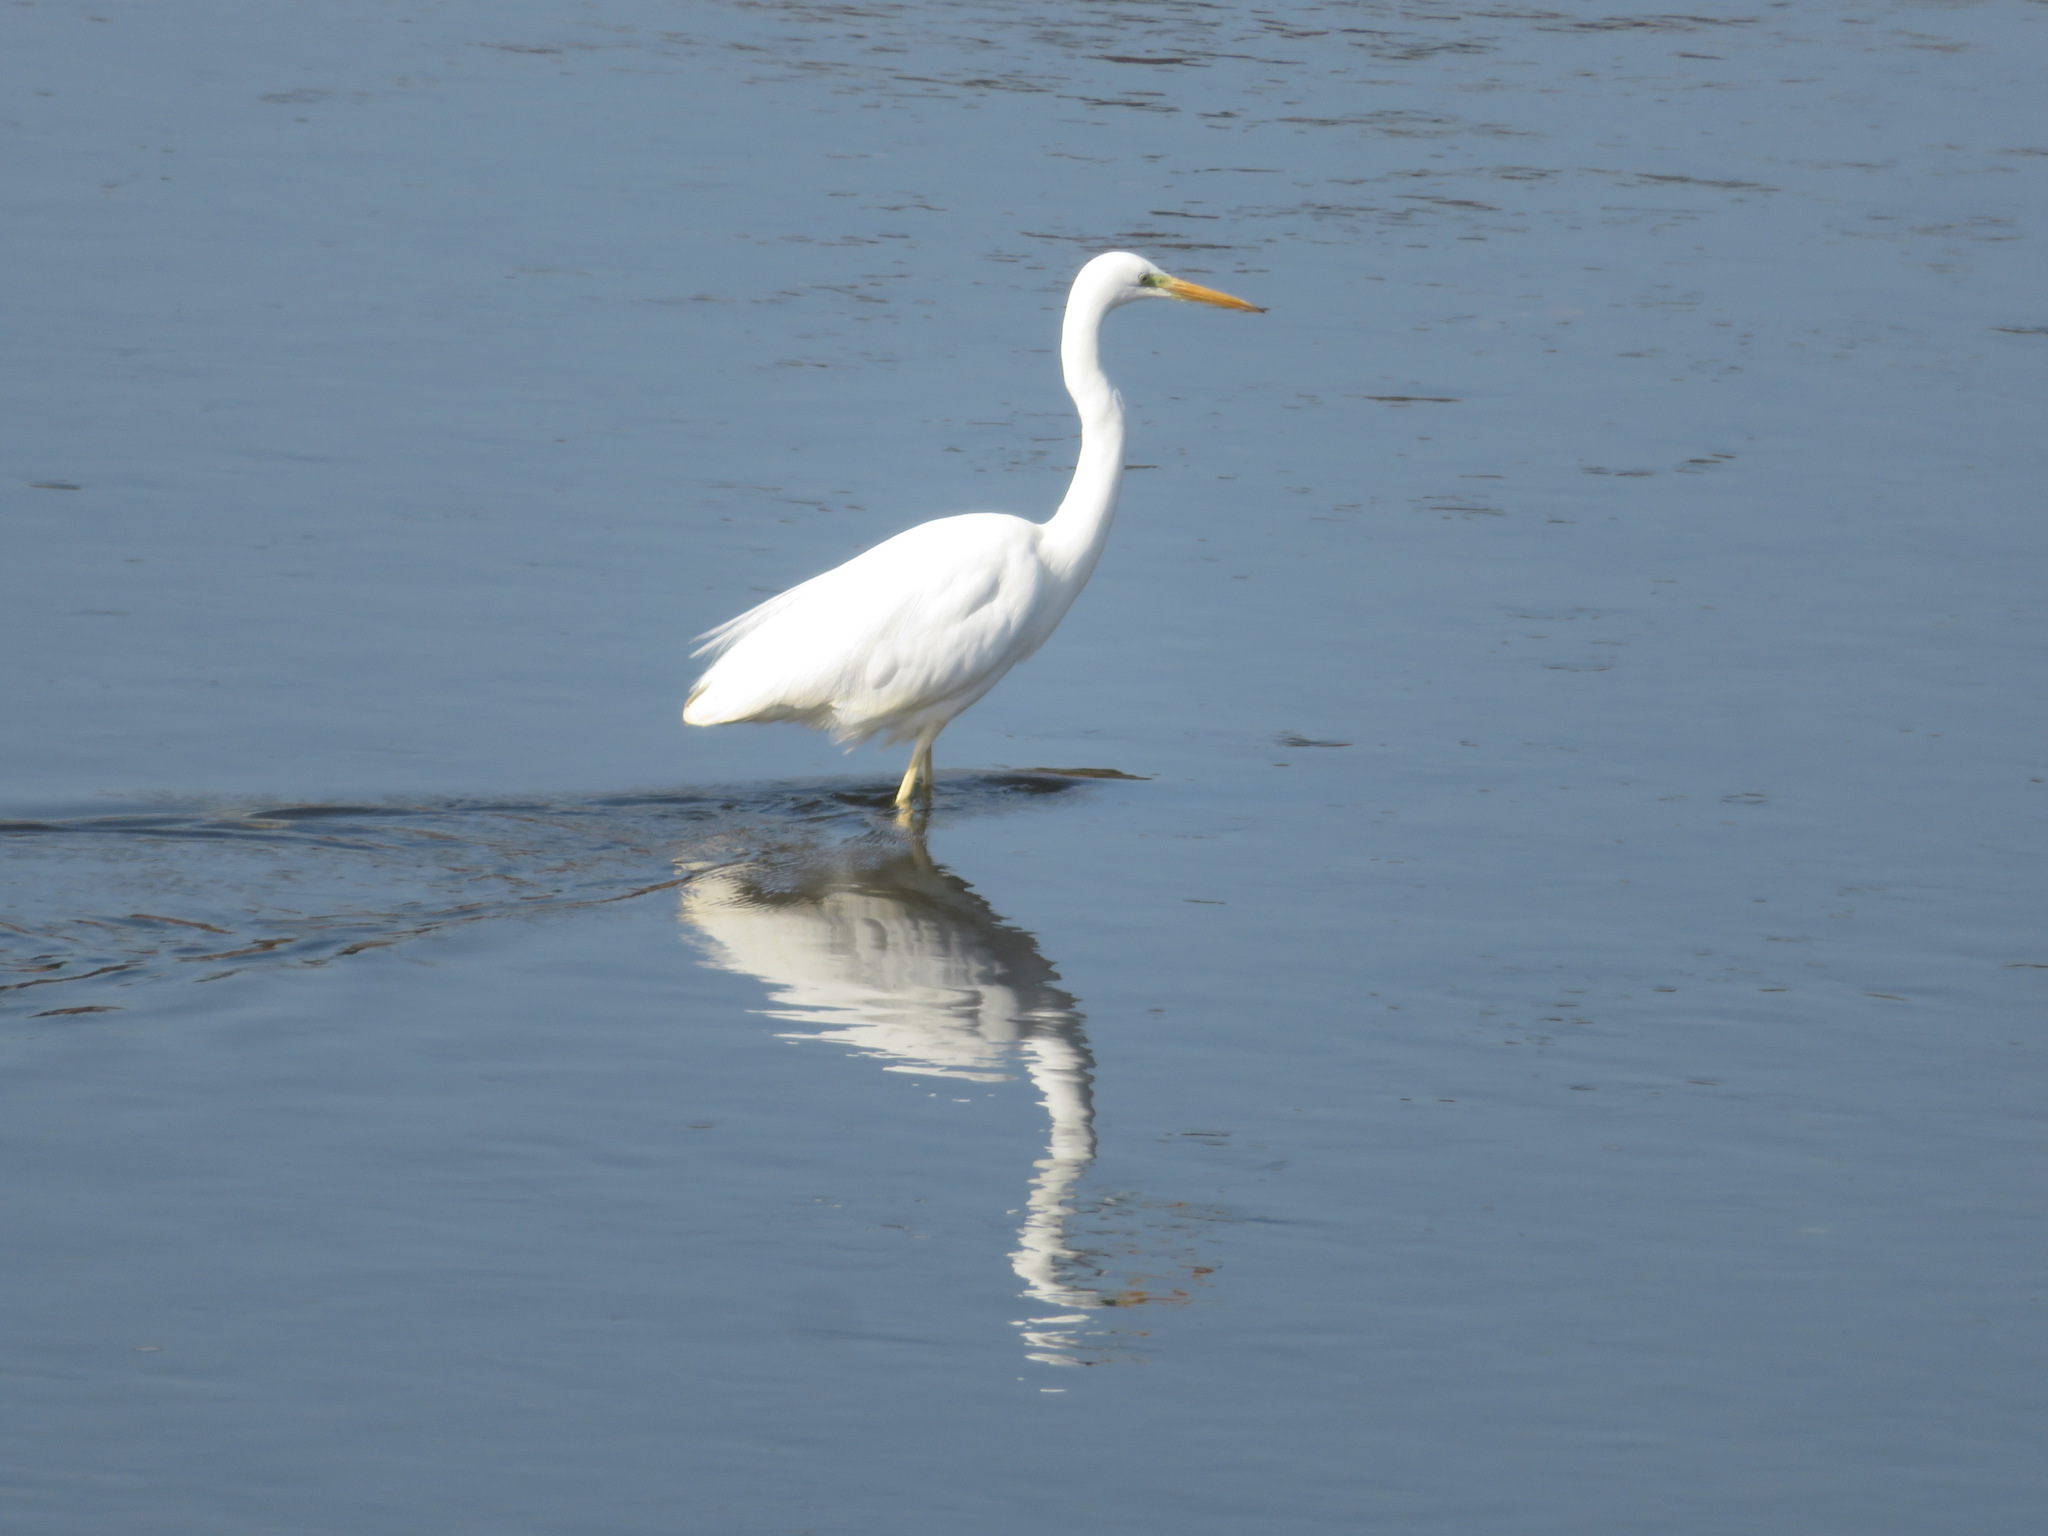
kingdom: Animalia
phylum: Chordata
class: Aves
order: Pelecaniformes
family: Ardeidae
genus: Ardea
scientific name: Ardea alba
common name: Great egret
